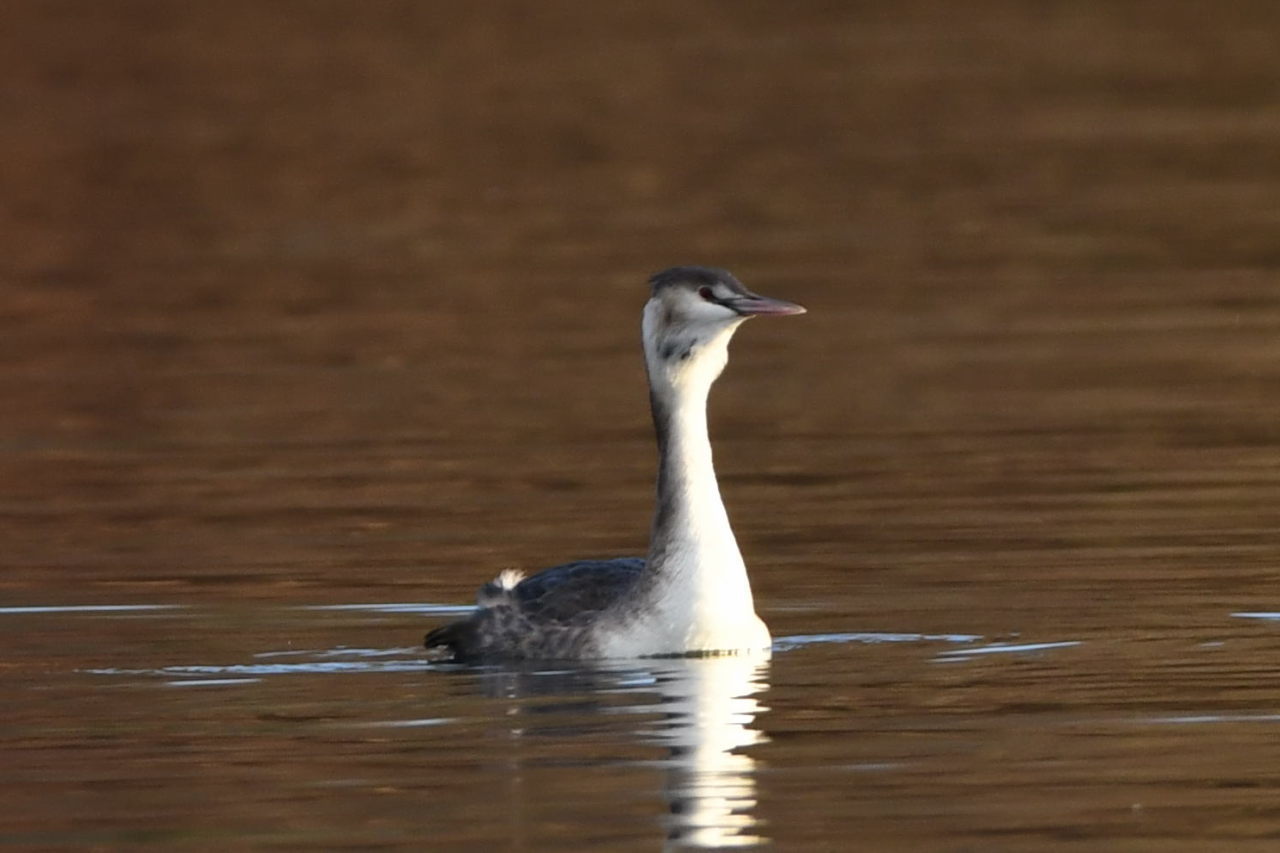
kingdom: Animalia
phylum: Chordata
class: Aves
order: Podicipediformes
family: Podicipedidae
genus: Podiceps
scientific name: Podiceps cristatus
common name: Great crested grebe
